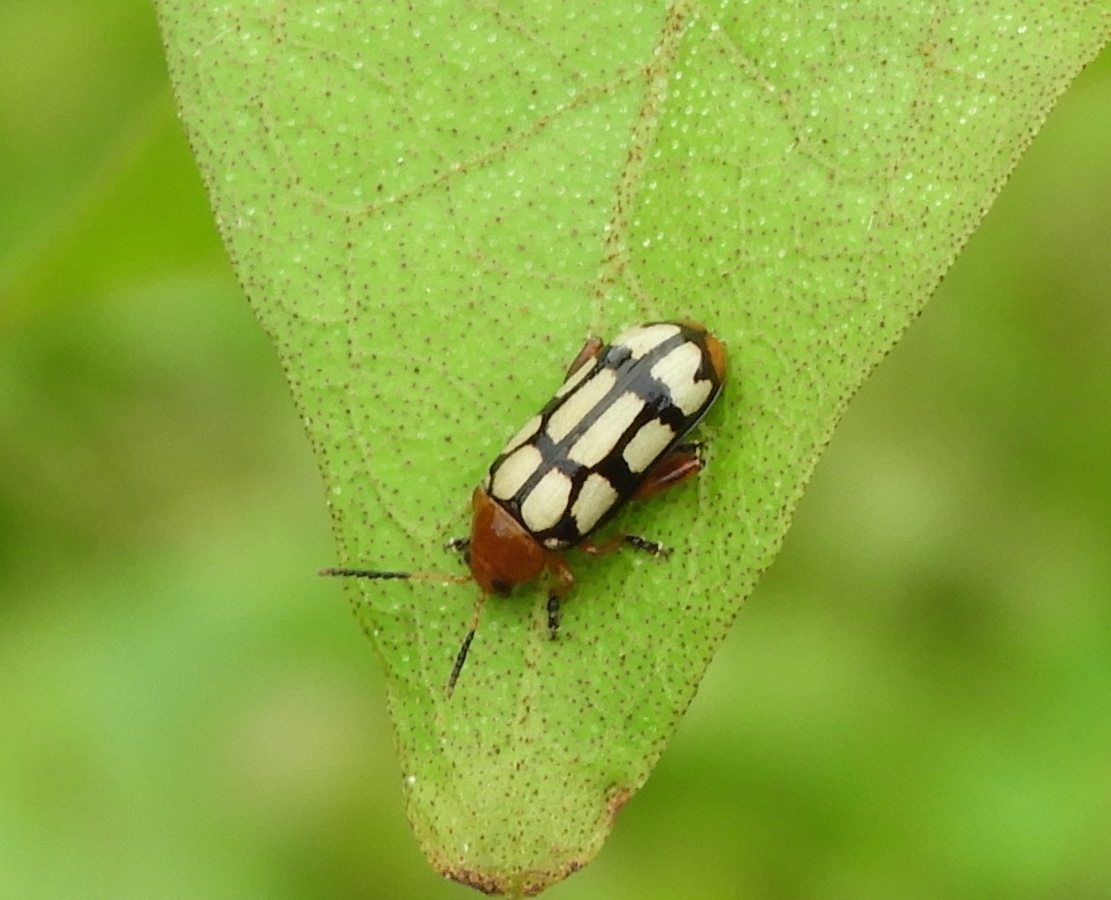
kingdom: Animalia
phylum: Arthropoda
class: Insecta
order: Coleoptera
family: Chrysomelidae
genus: Disonycha
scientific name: Disonycha
